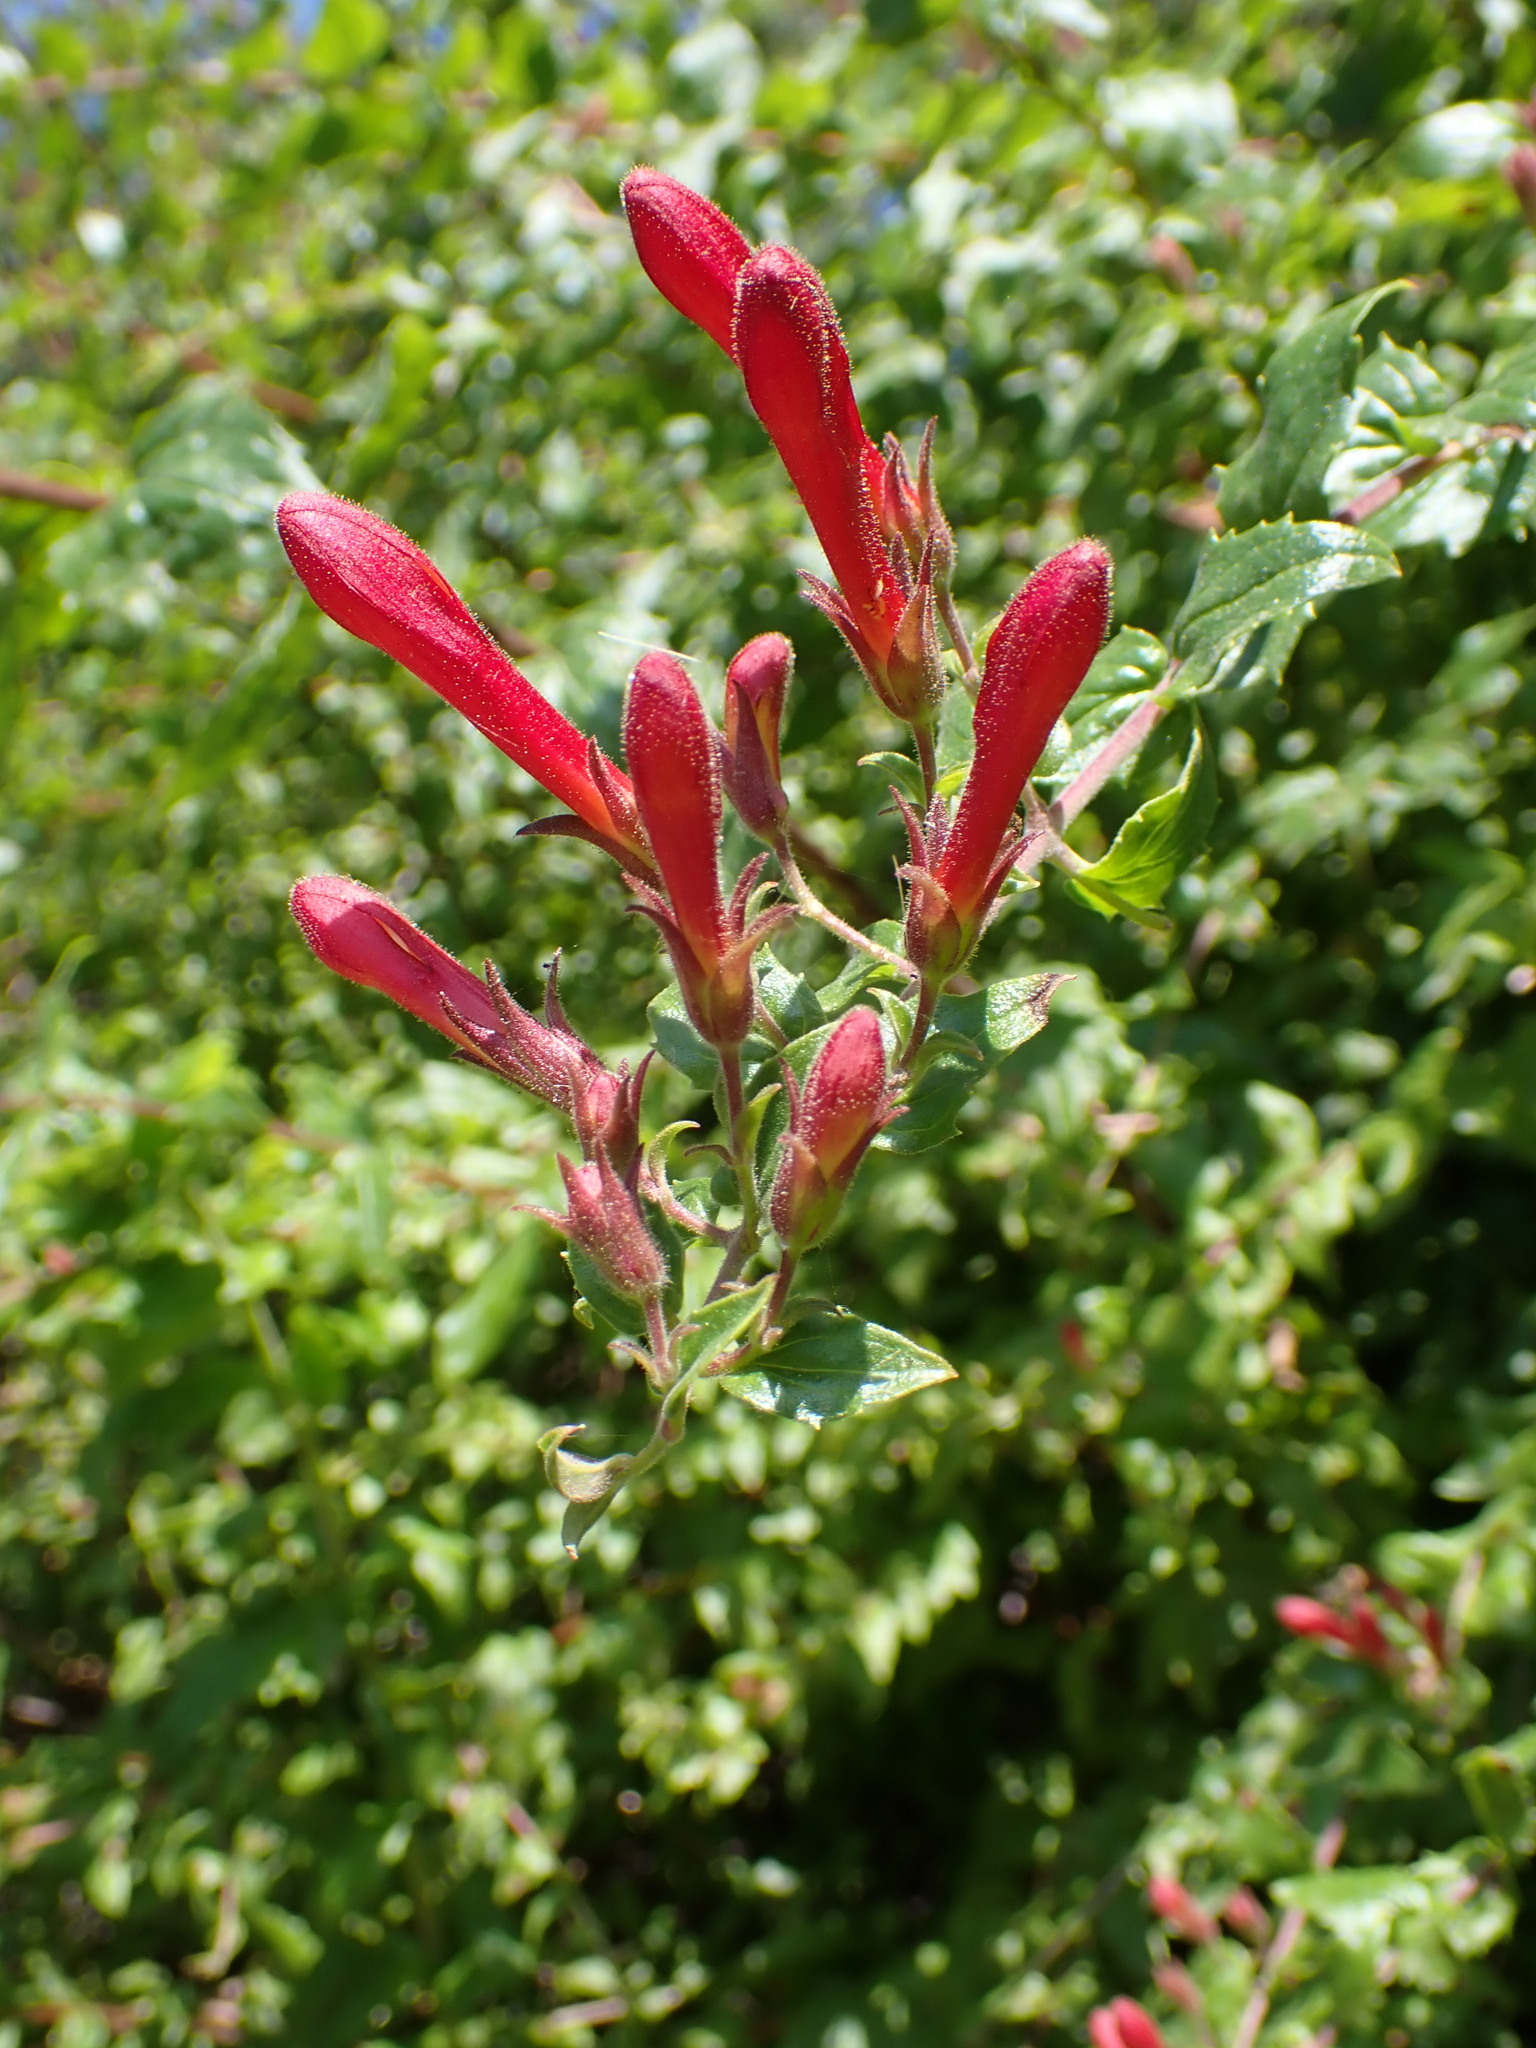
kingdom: Plantae
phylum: Tracheophyta
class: Magnoliopsida
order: Lamiales
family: Plantaginaceae
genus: Keckiella
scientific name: Keckiella cordifolia
